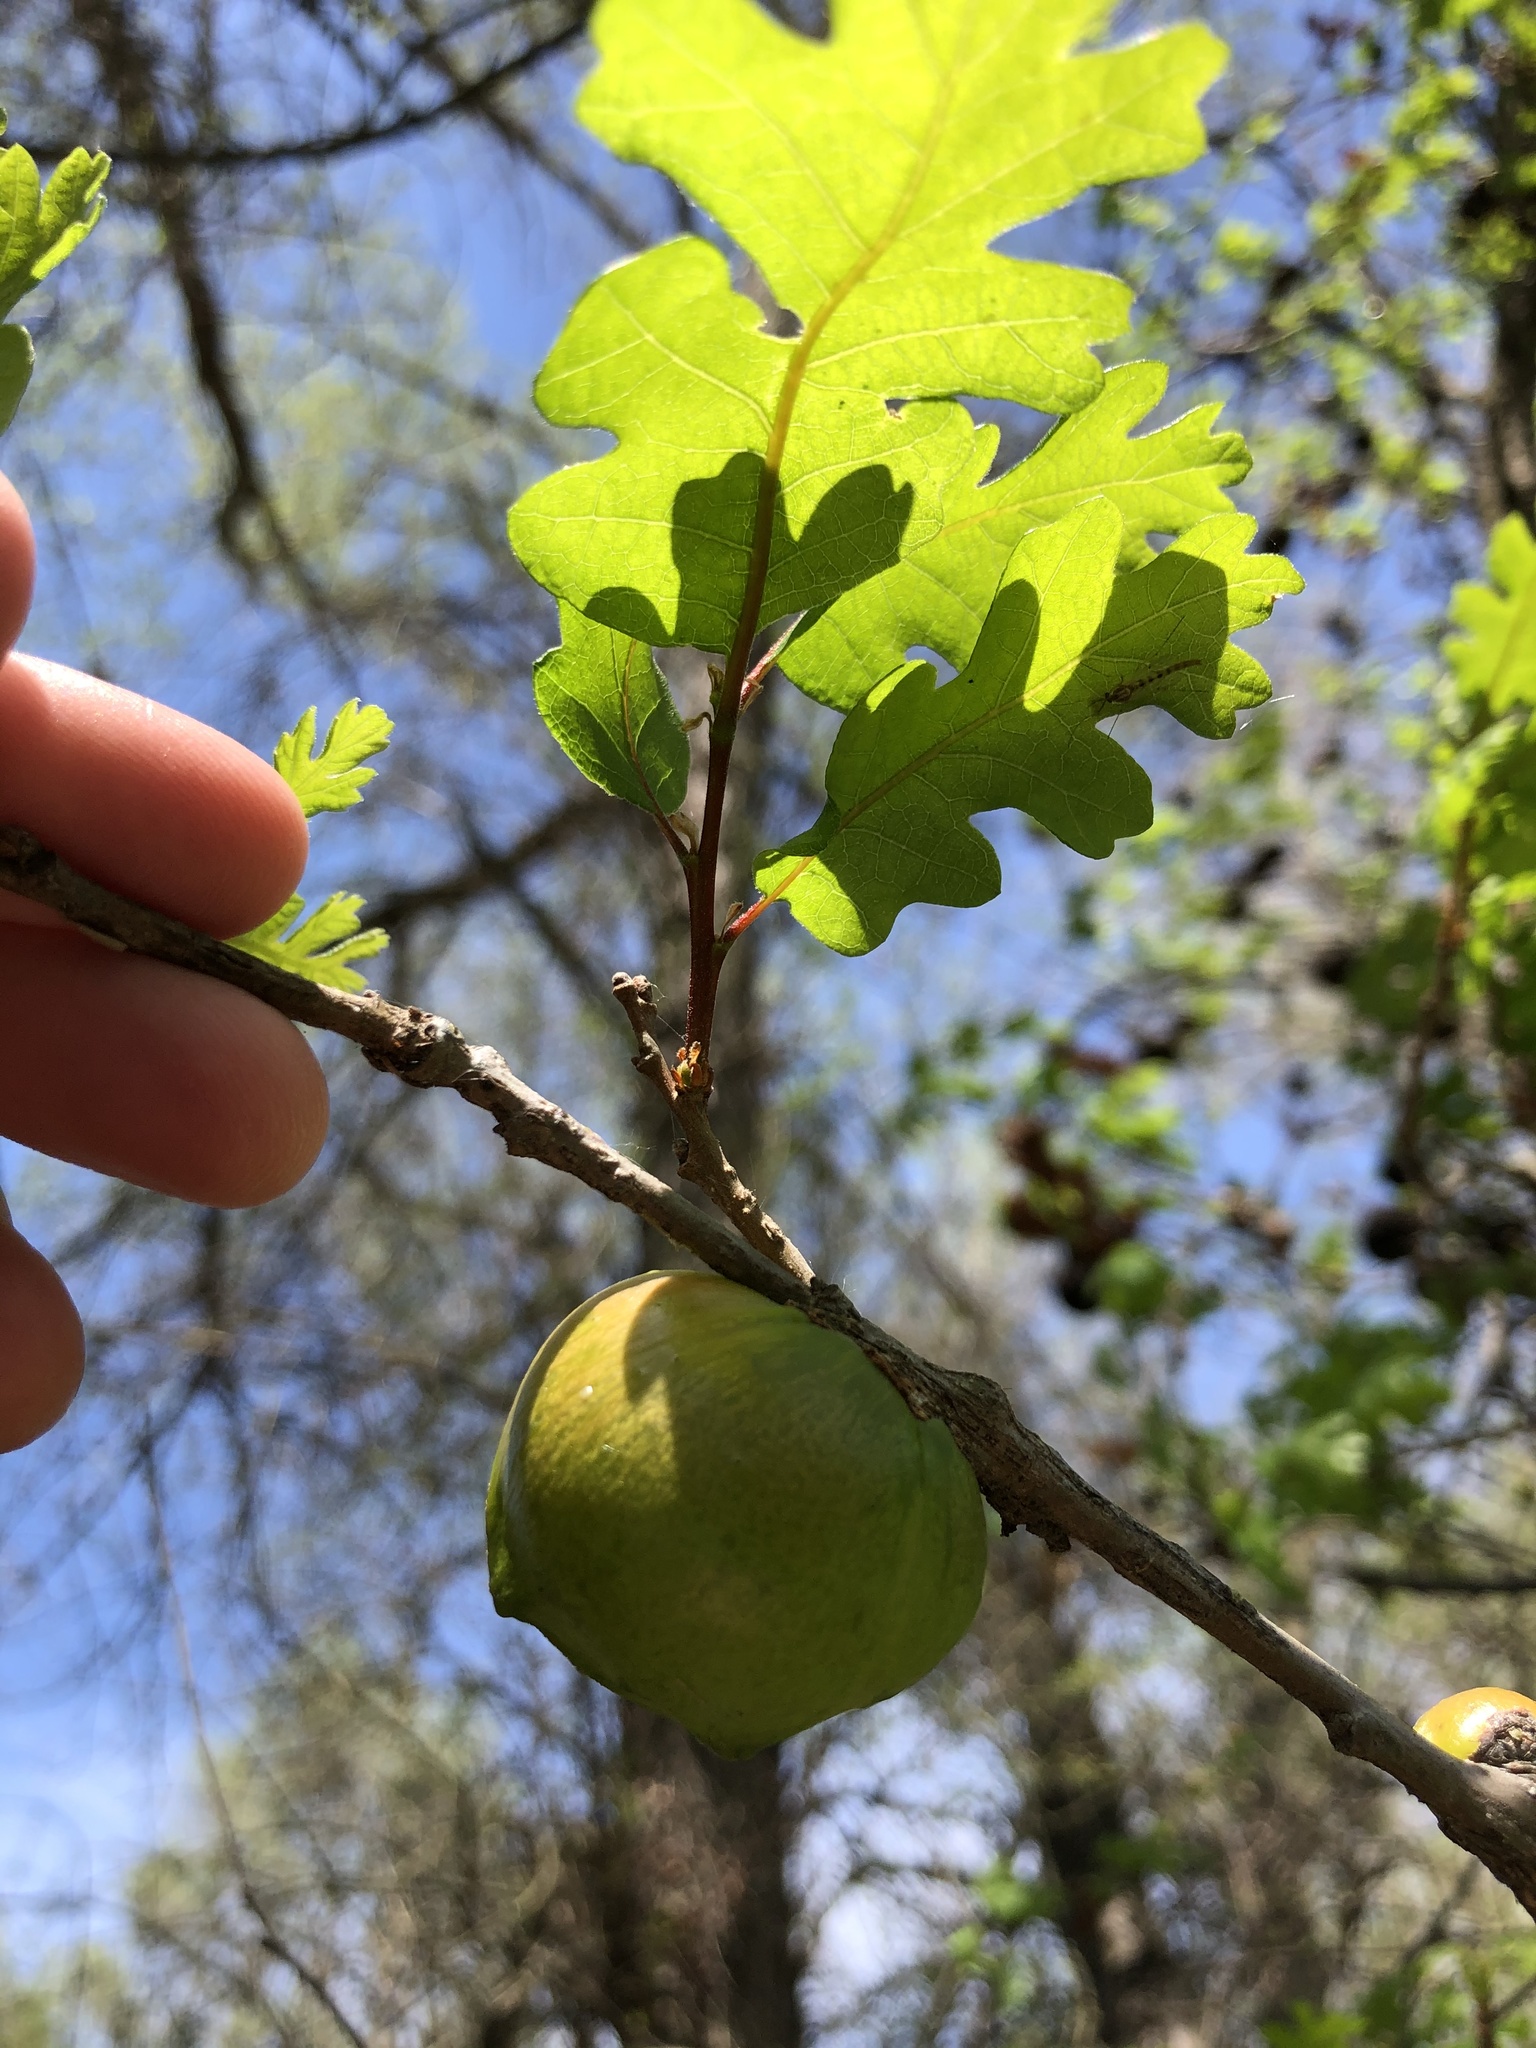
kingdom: Animalia
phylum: Arthropoda
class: Insecta
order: Hymenoptera
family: Cynipidae
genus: Andricus
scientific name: Andricus quercuscalifornicus
